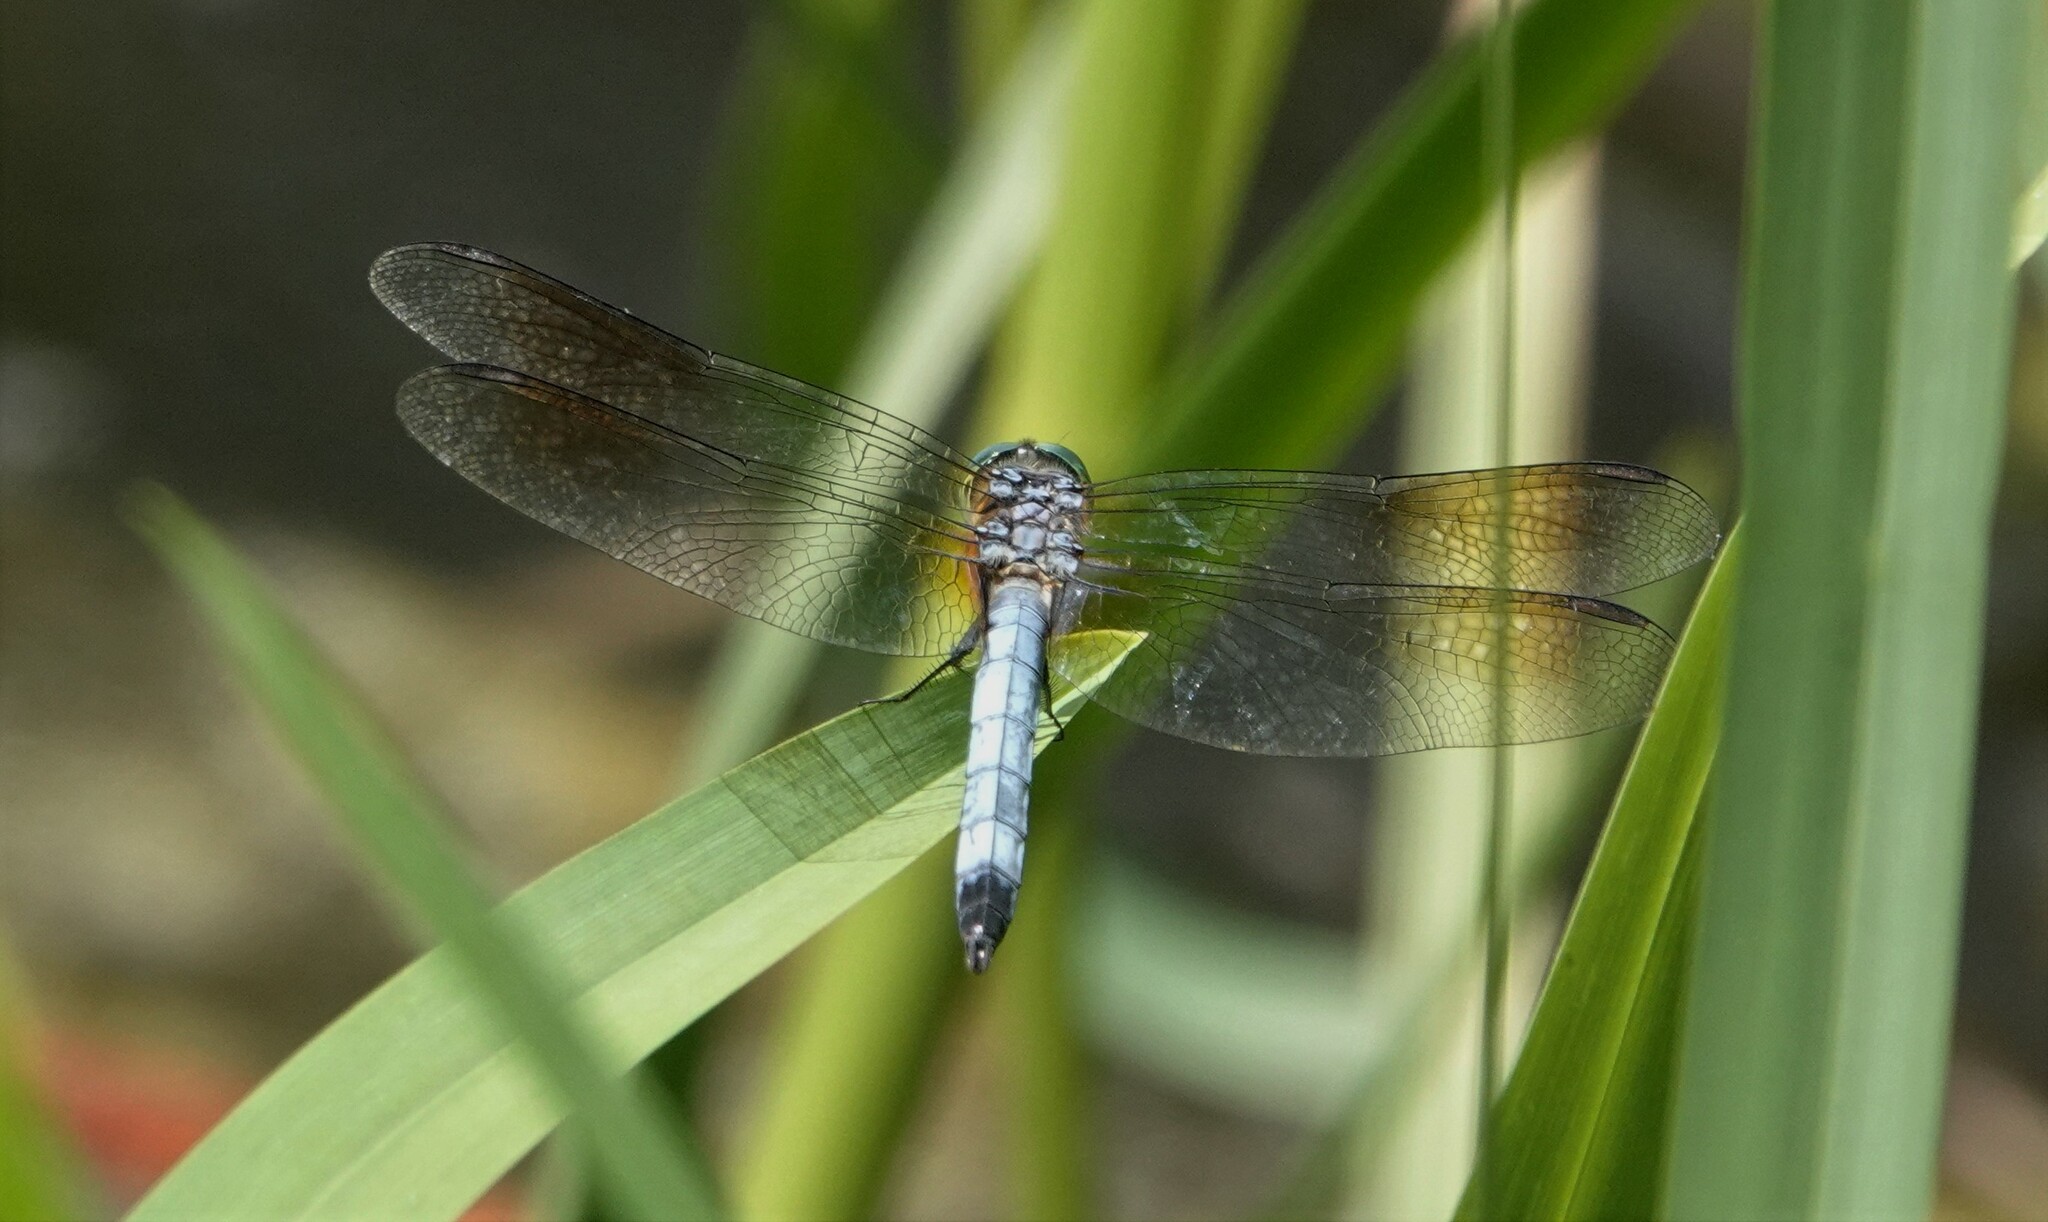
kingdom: Animalia
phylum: Arthropoda
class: Insecta
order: Odonata
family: Libellulidae
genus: Pachydiplax
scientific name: Pachydiplax longipennis
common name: Blue dasher
